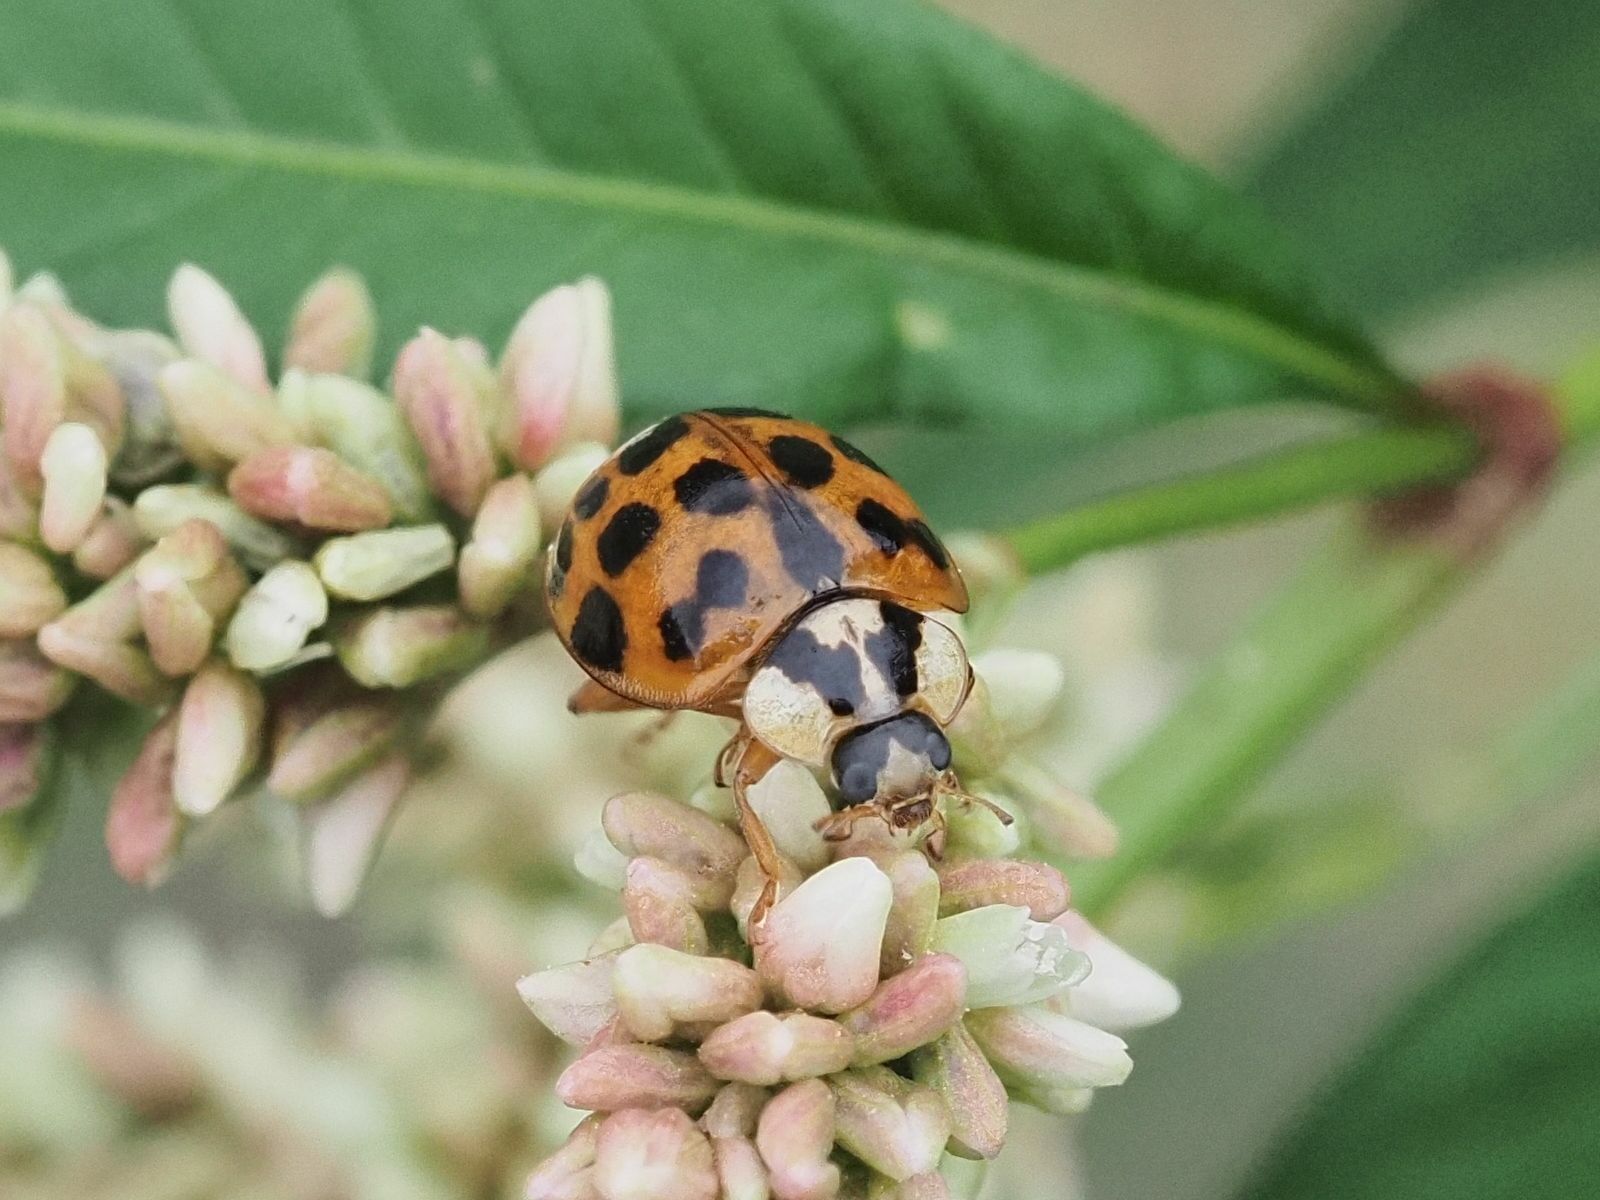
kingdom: Animalia
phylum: Arthropoda
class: Insecta
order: Coleoptera
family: Coccinellidae
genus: Harmonia
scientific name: Harmonia axyridis
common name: Harlequin ladybird
